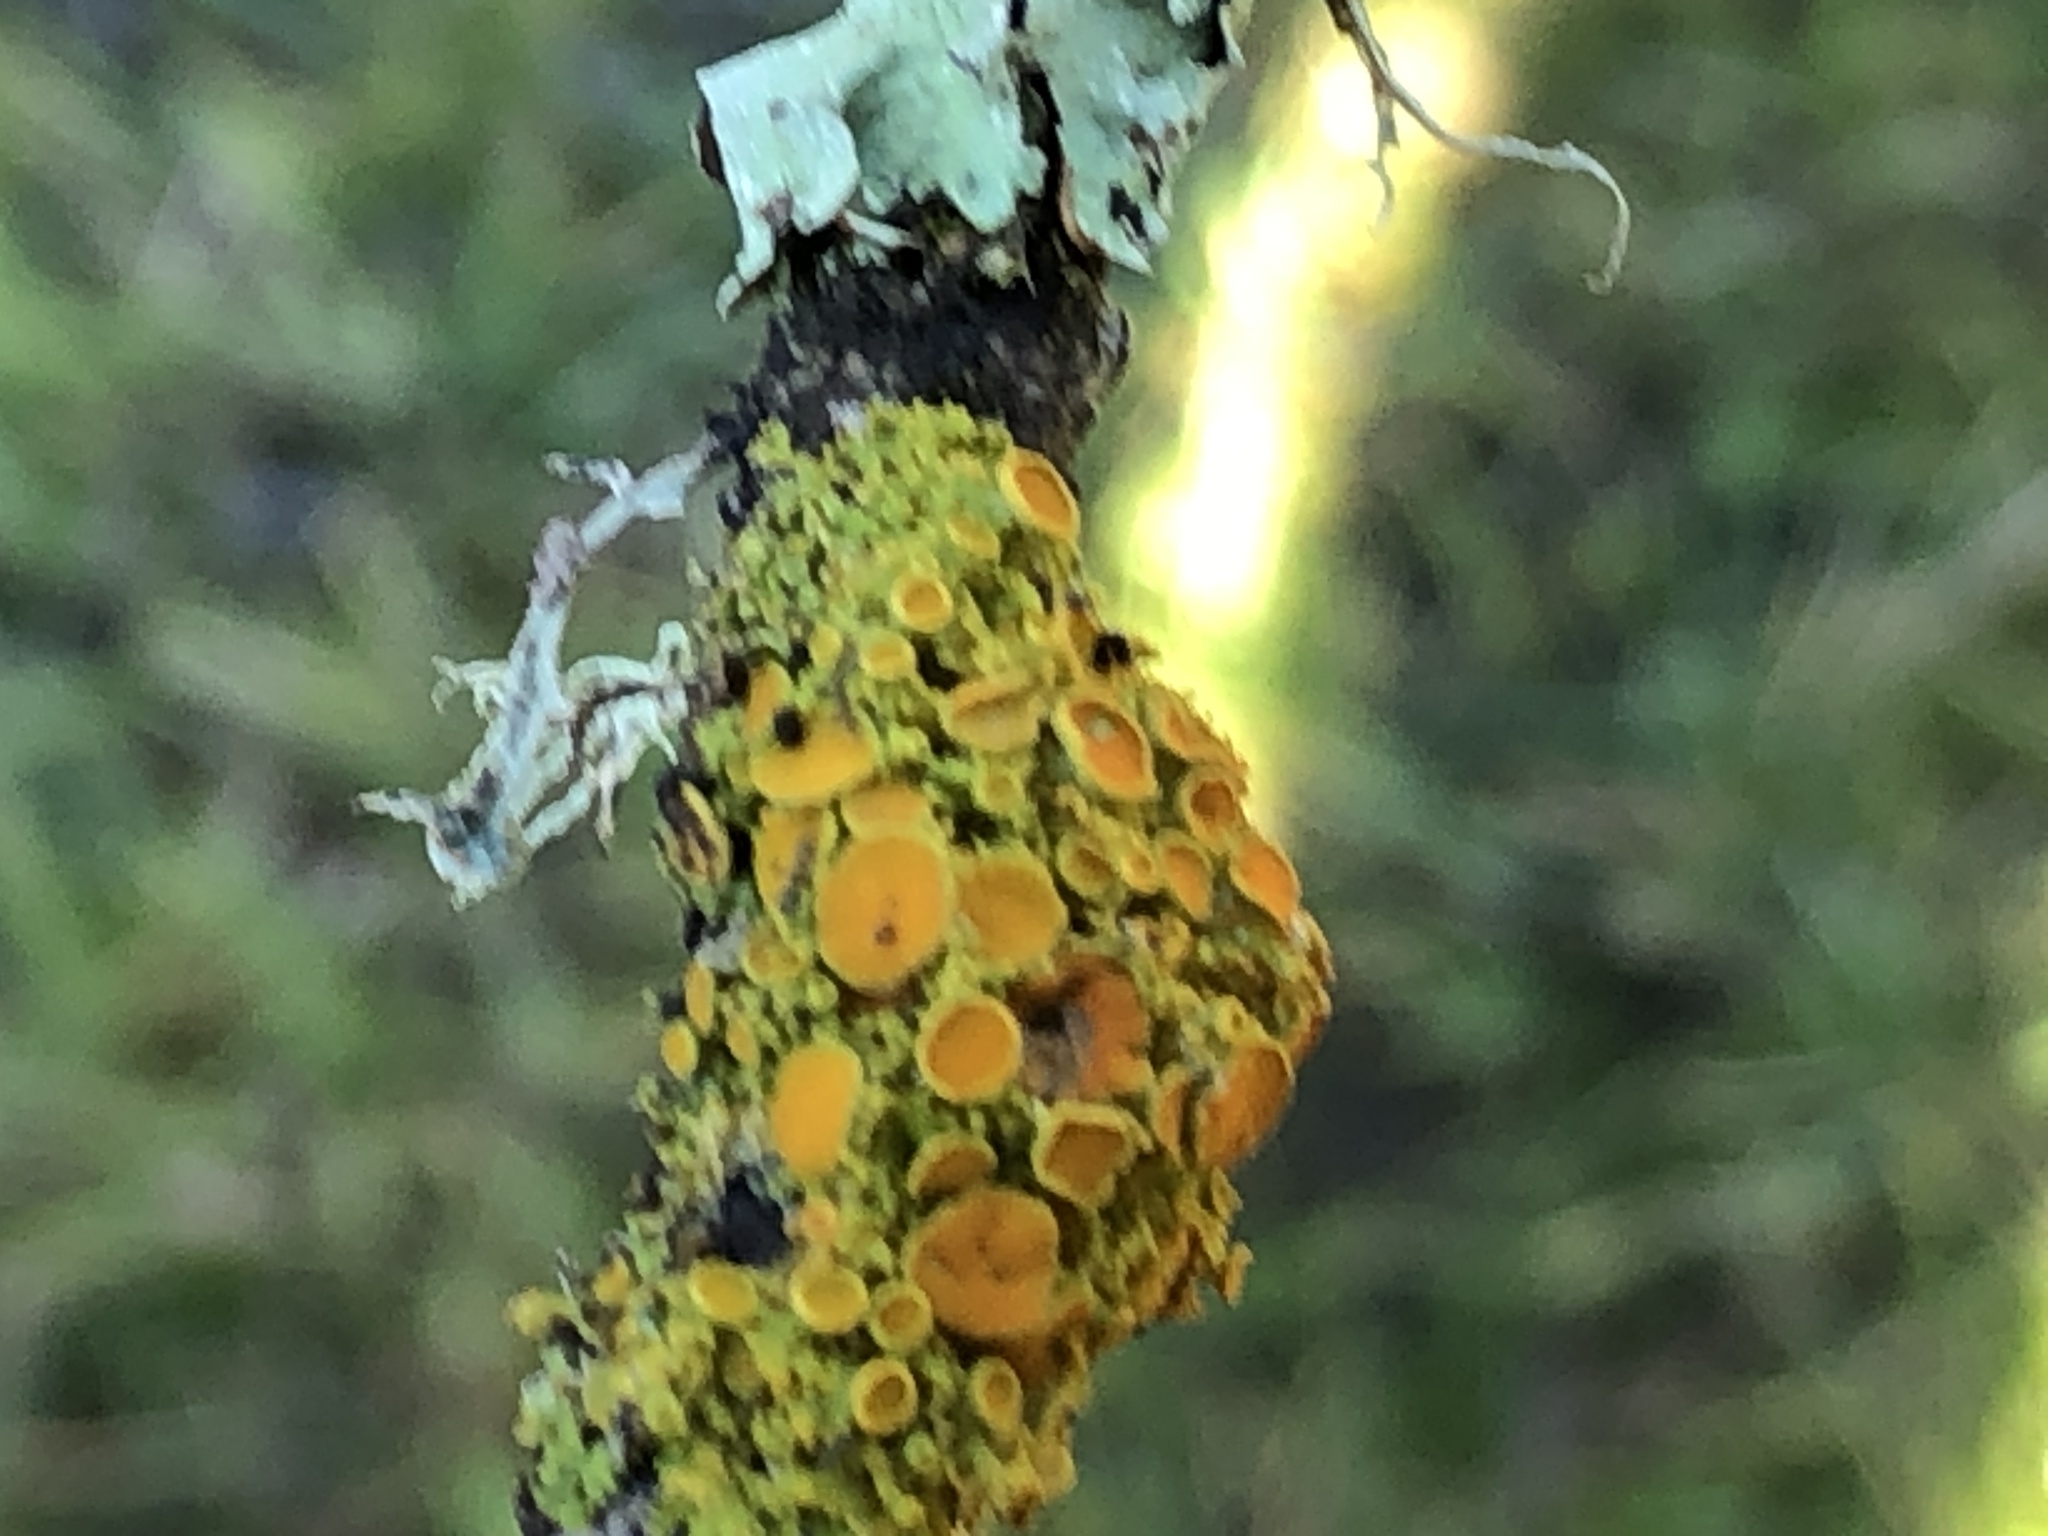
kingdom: Fungi
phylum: Ascomycota
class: Lecanoromycetes
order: Teloschistales
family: Teloschistaceae
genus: Gallowayella
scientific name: Gallowayella hasseana
